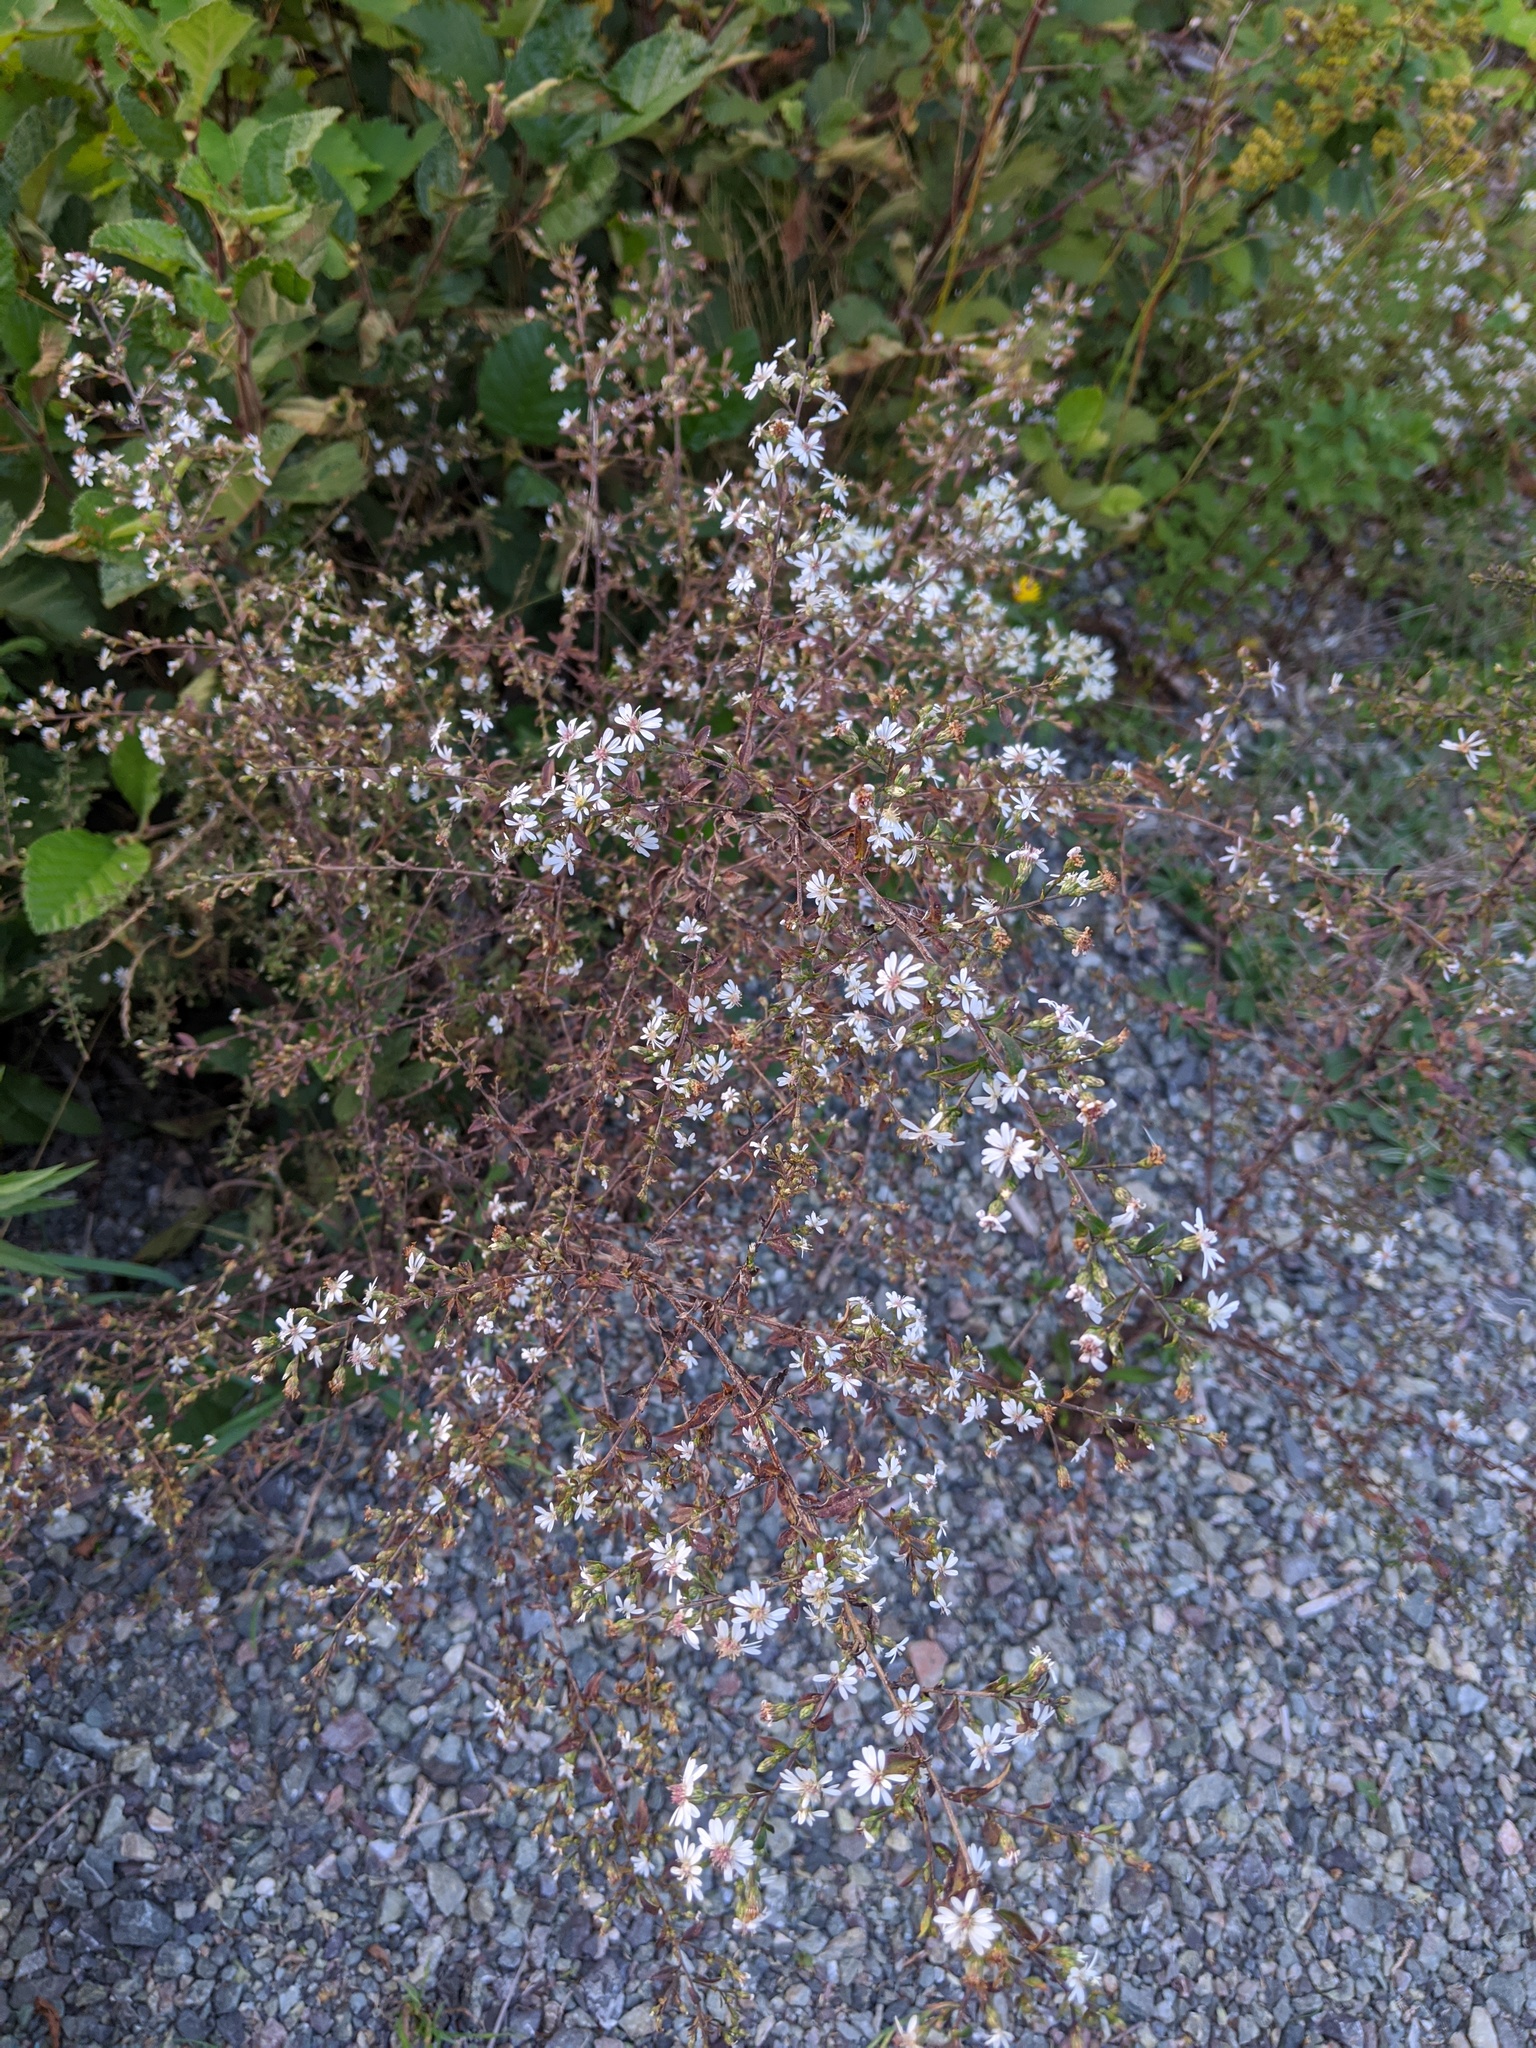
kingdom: Plantae
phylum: Tracheophyta
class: Magnoliopsida
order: Asterales
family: Asteraceae
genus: Symphyotrichum
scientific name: Symphyotrichum lateriflorum
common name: Calico aster
